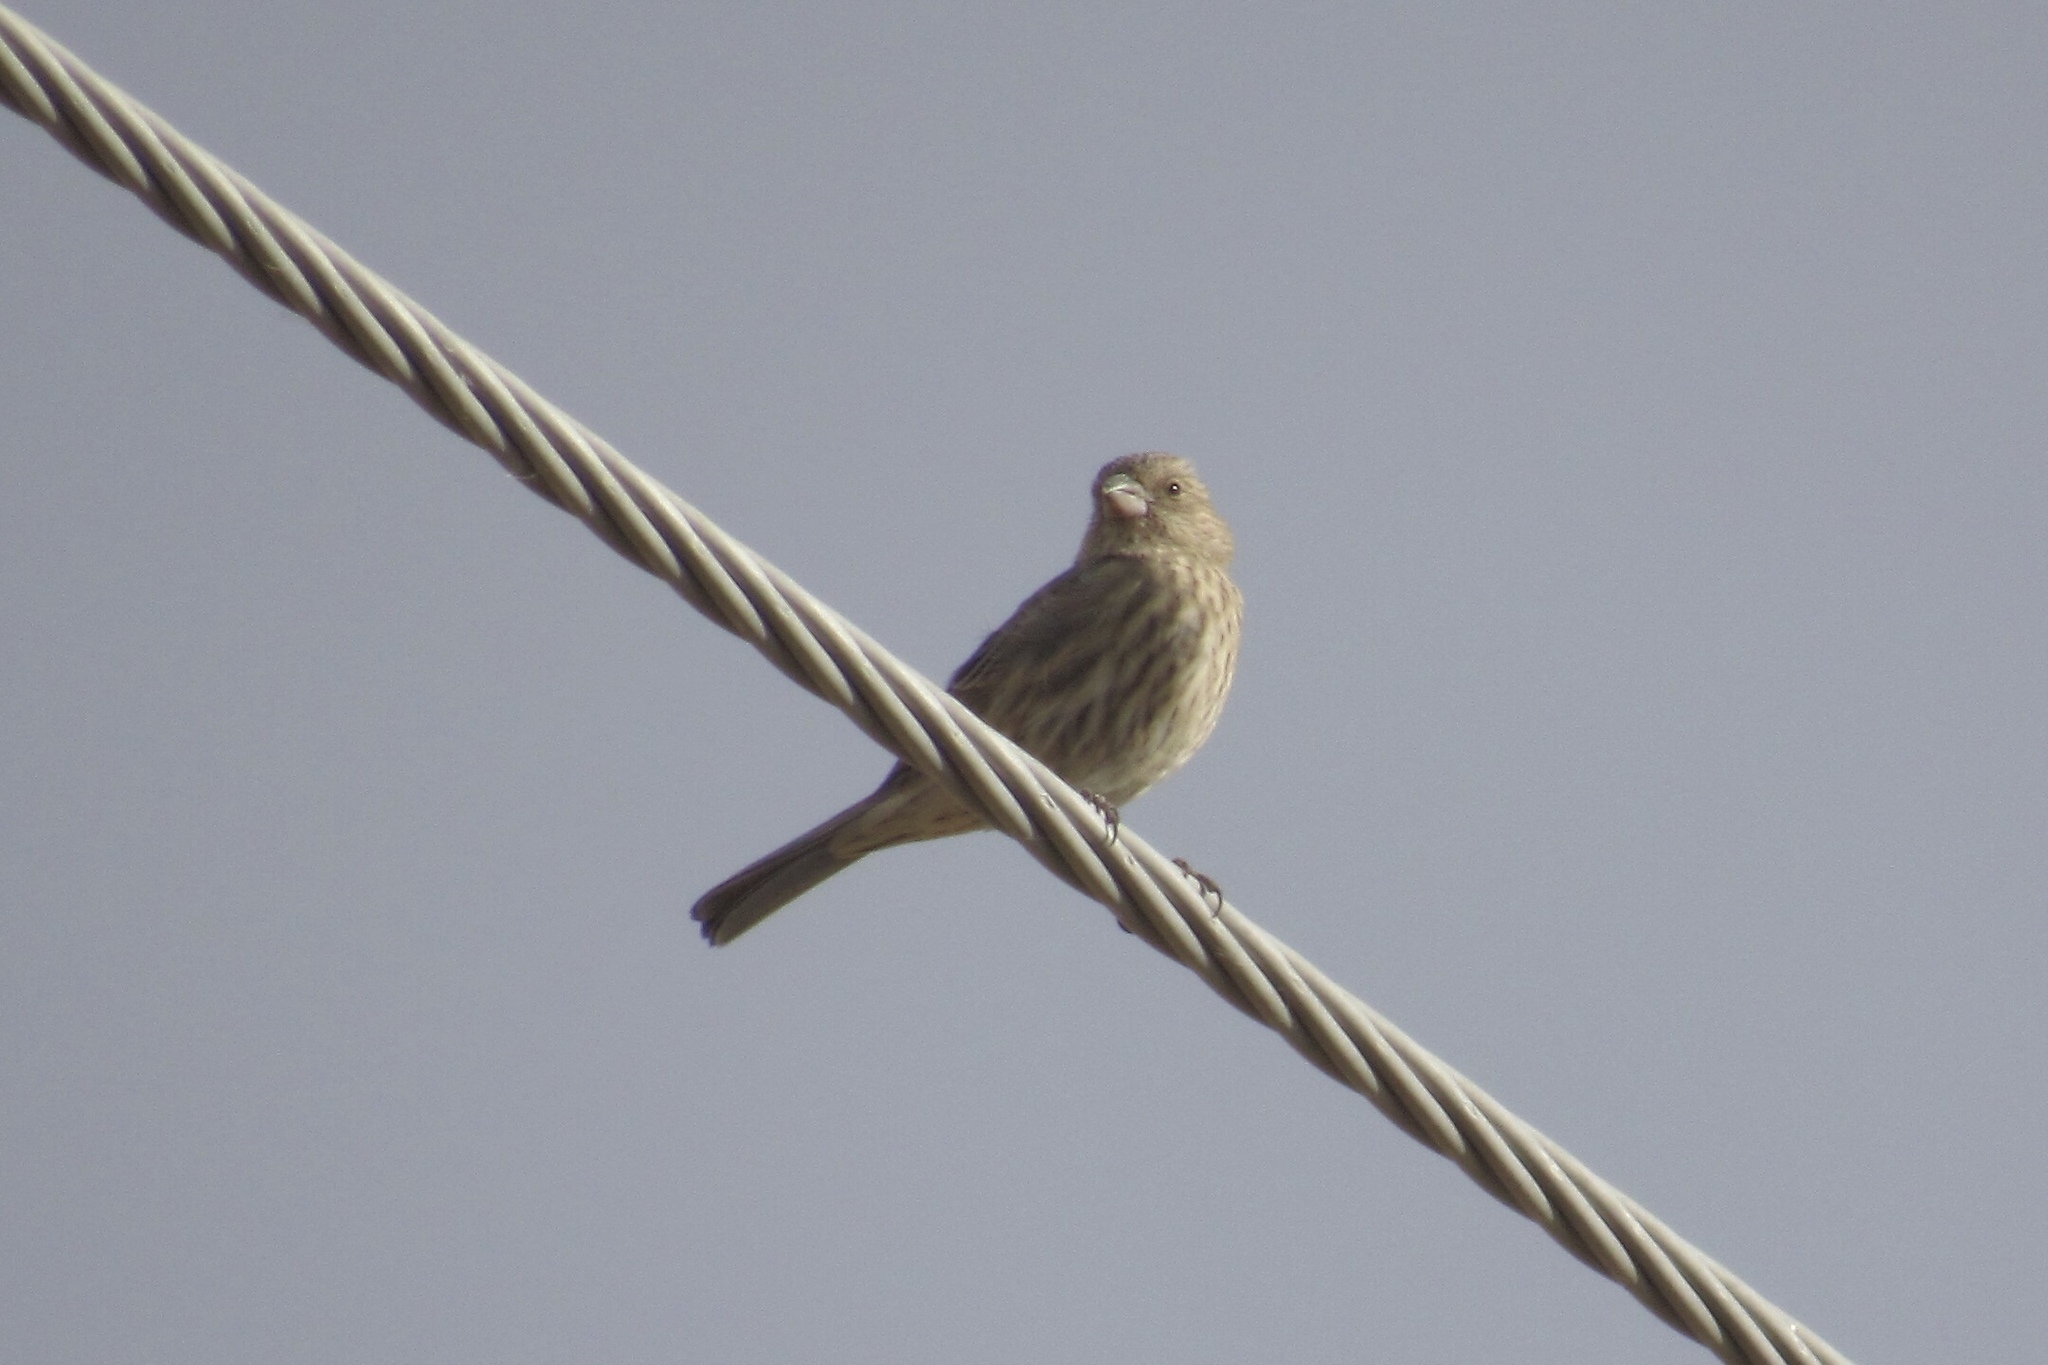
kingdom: Animalia
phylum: Chordata
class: Aves
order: Passeriformes
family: Fringillidae
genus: Haemorhous
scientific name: Haemorhous mexicanus
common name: House finch
